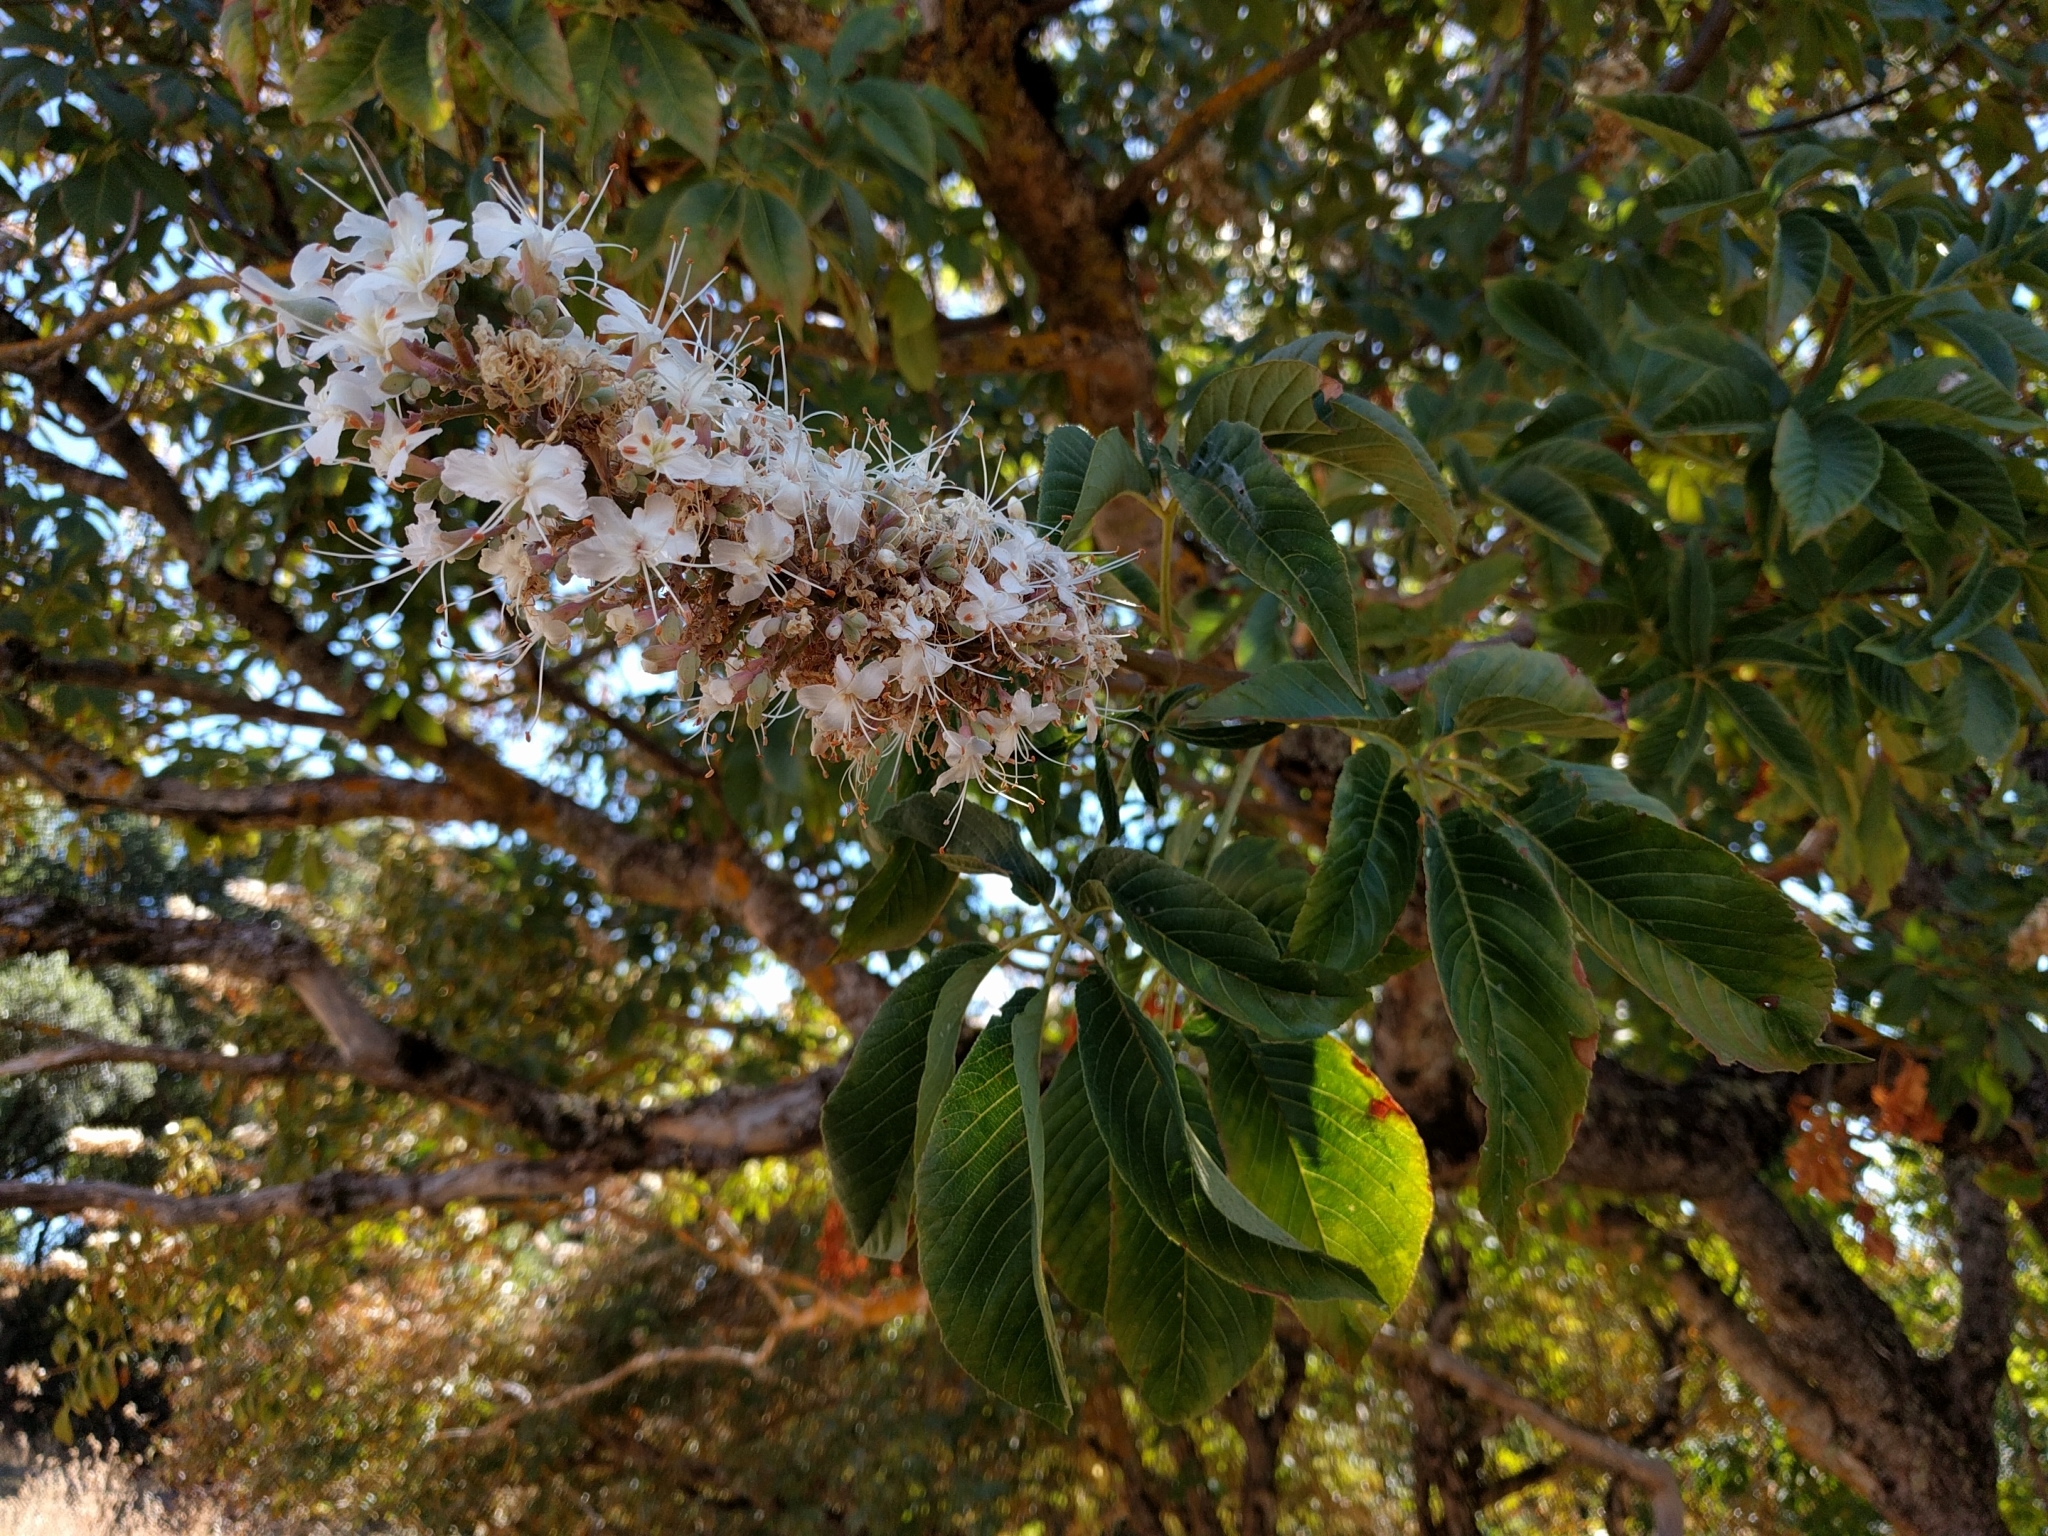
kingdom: Plantae
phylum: Tracheophyta
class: Magnoliopsida
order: Sapindales
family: Sapindaceae
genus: Aesculus
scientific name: Aesculus californica
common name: California buckeye
